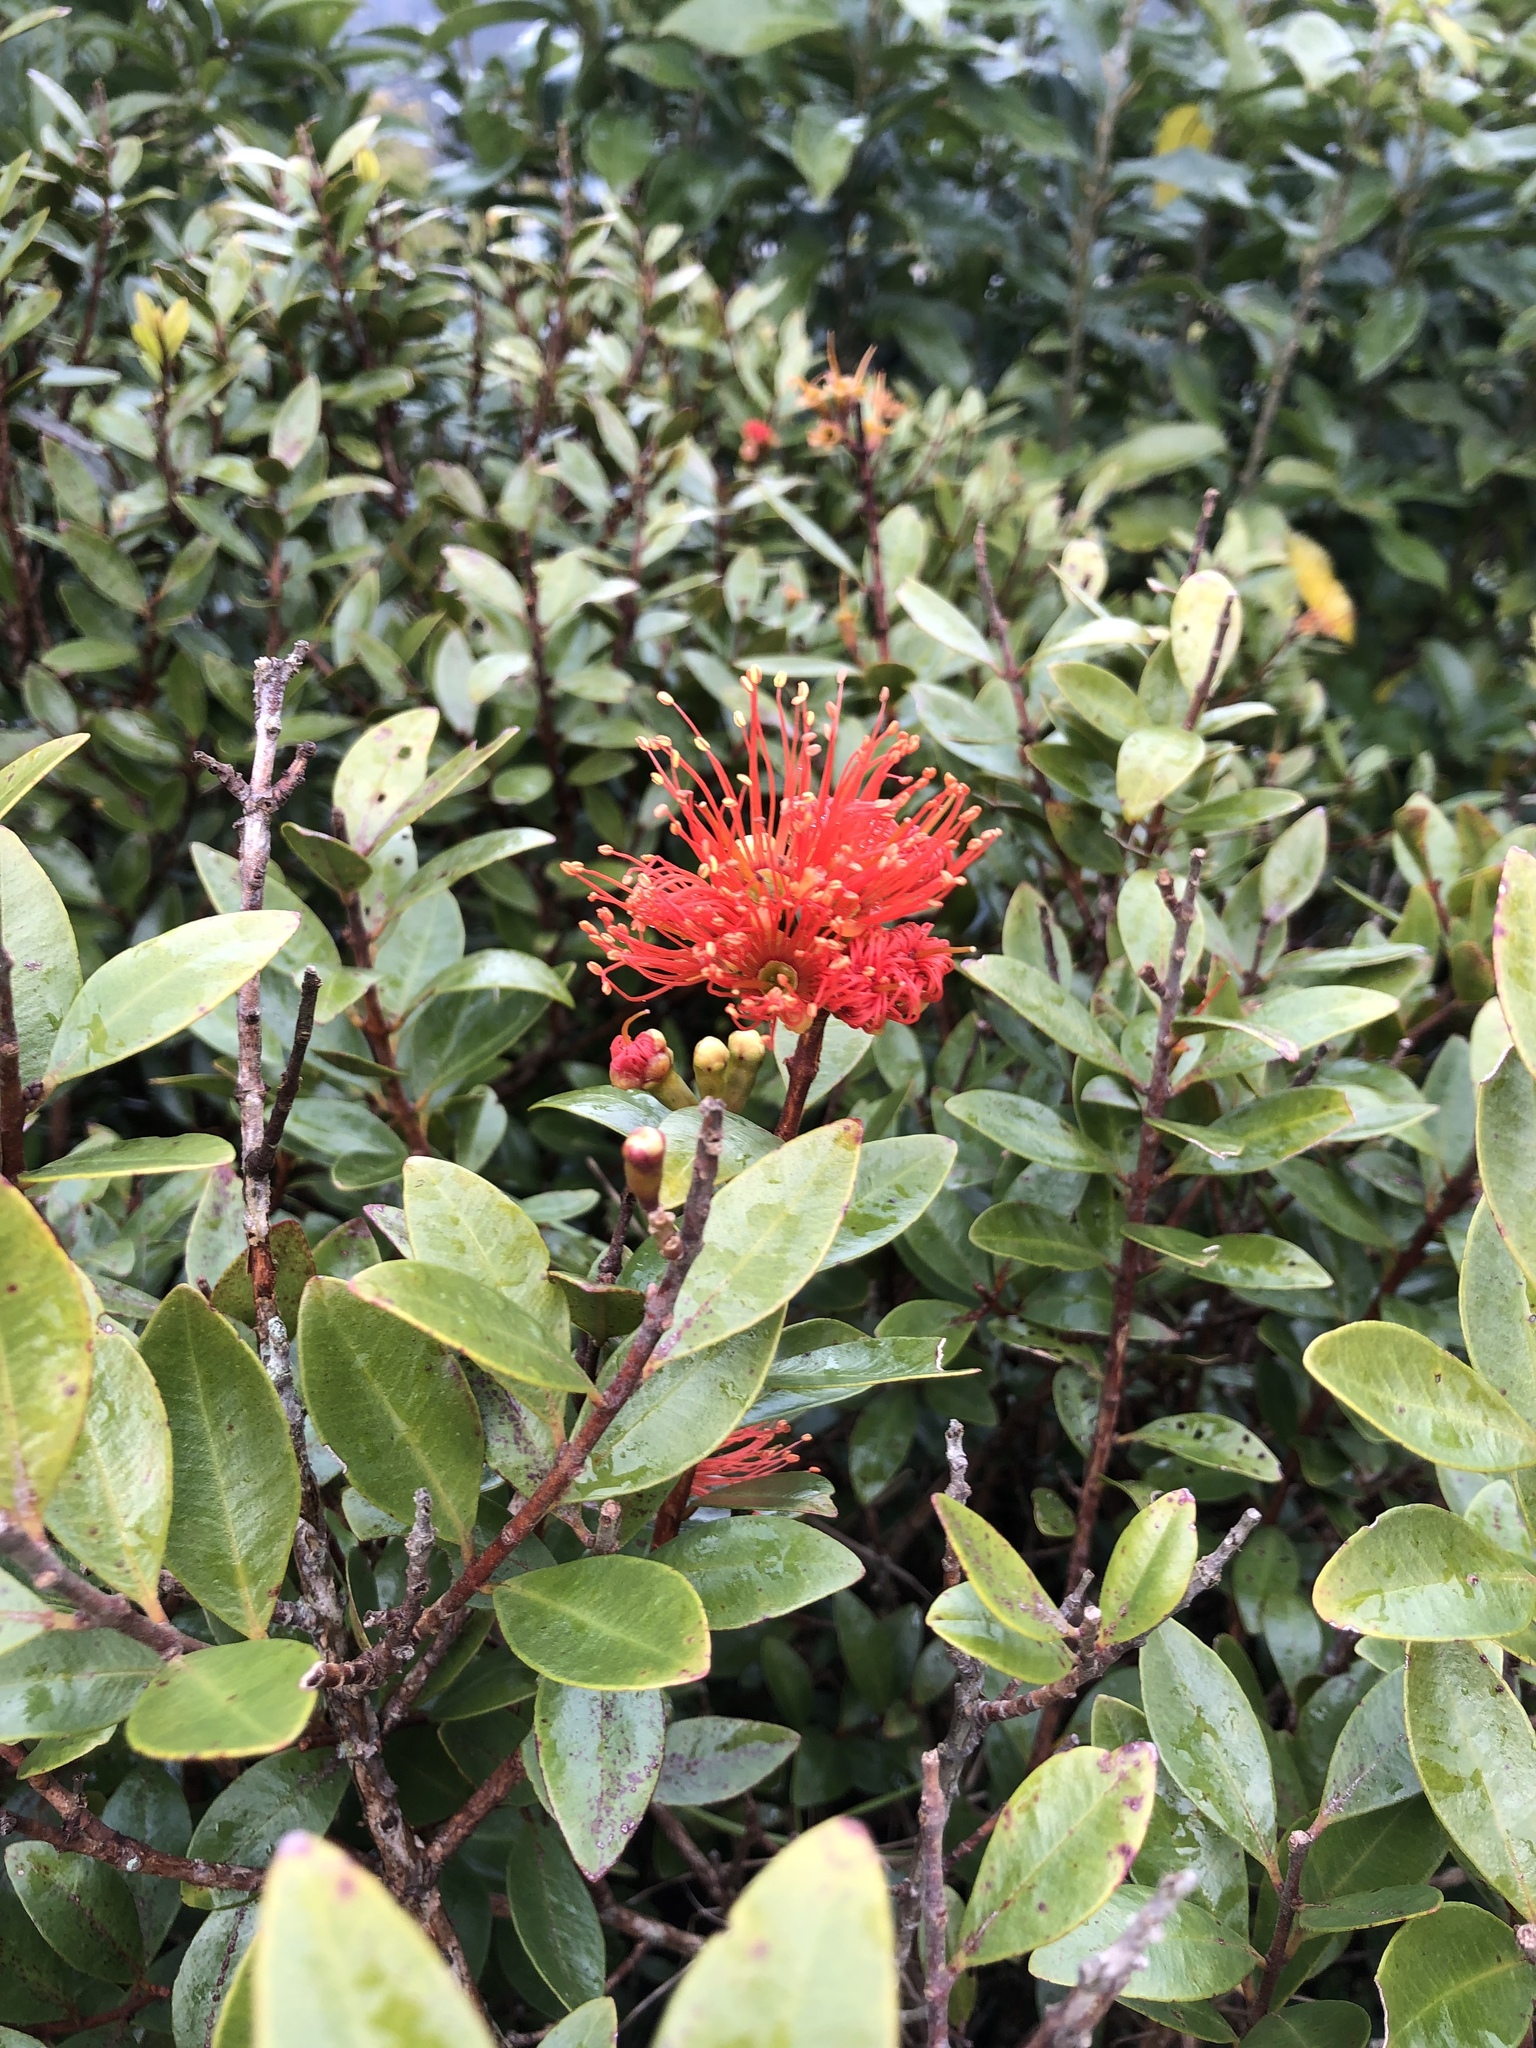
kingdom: Plantae
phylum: Tracheophyta
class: Magnoliopsida
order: Myrtales
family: Myrtaceae
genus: Metrosideros
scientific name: Metrosideros fulgens
